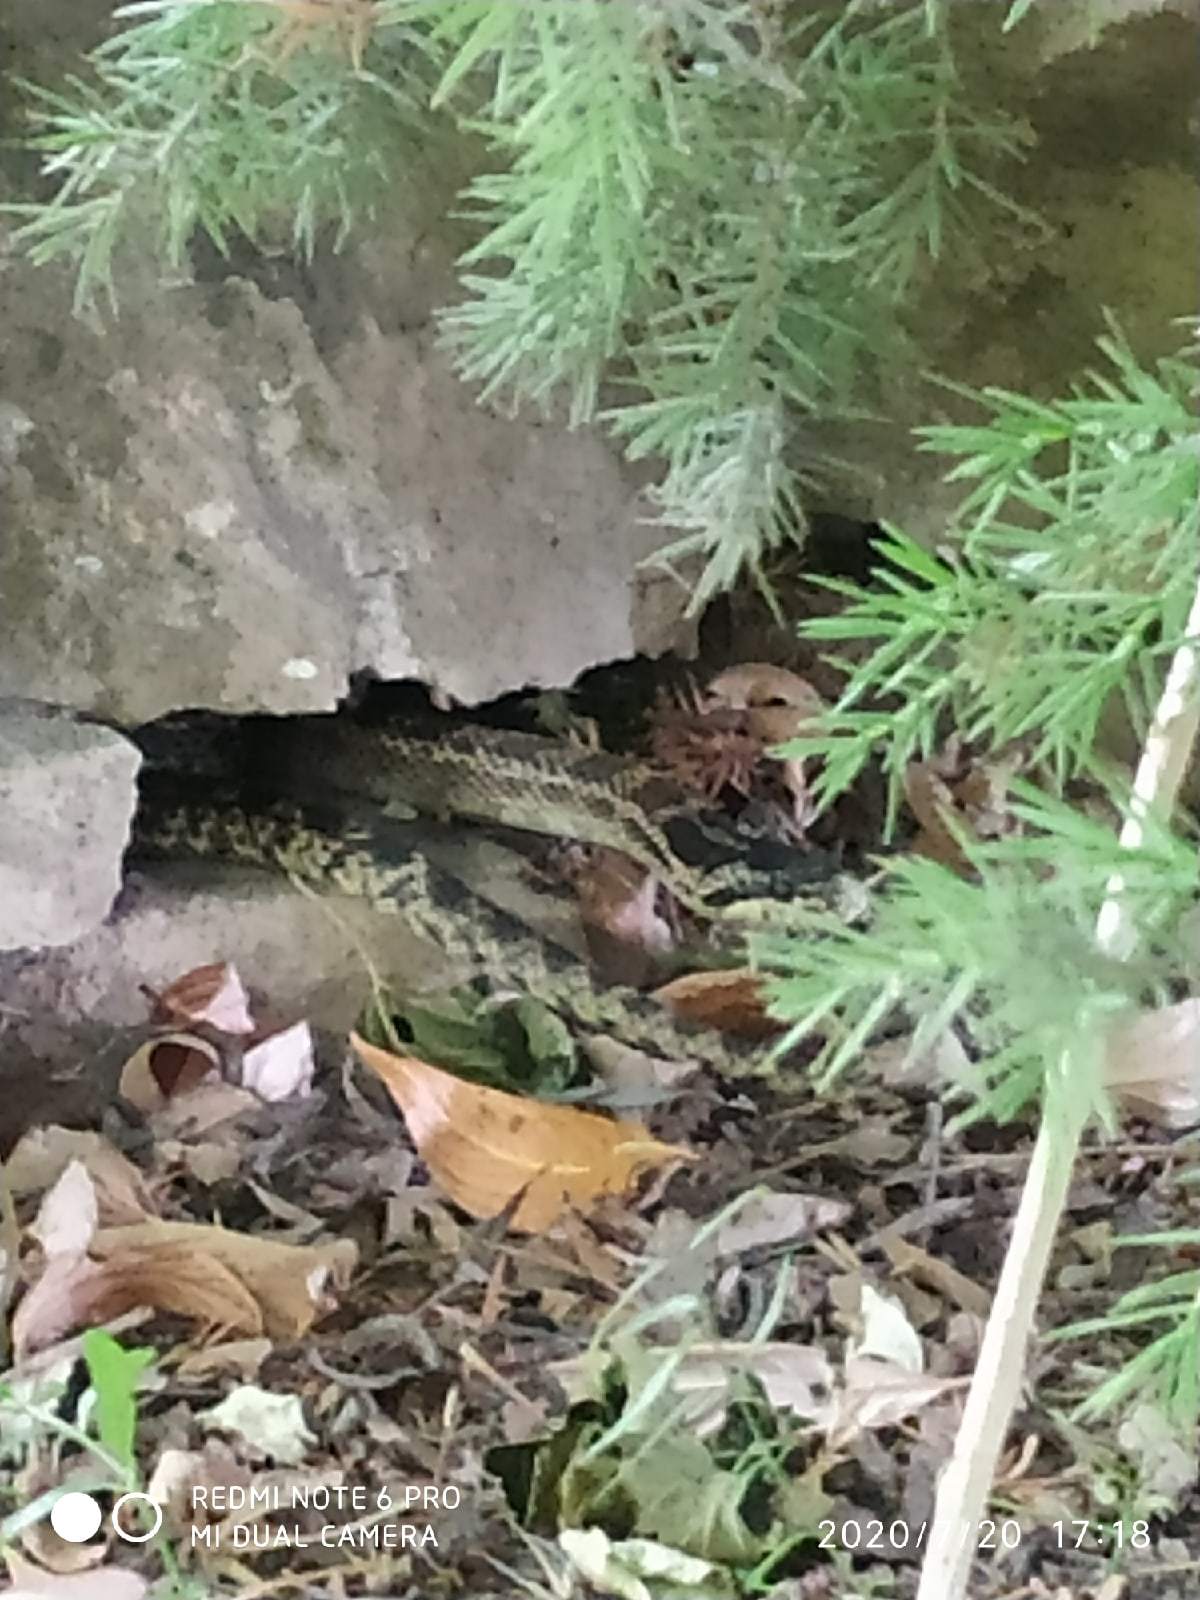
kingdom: Animalia
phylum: Chordata
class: Squamata
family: Colubridae
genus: Elaphe
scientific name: Elaphe sauromates
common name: Eastern four-lined ratsnake
